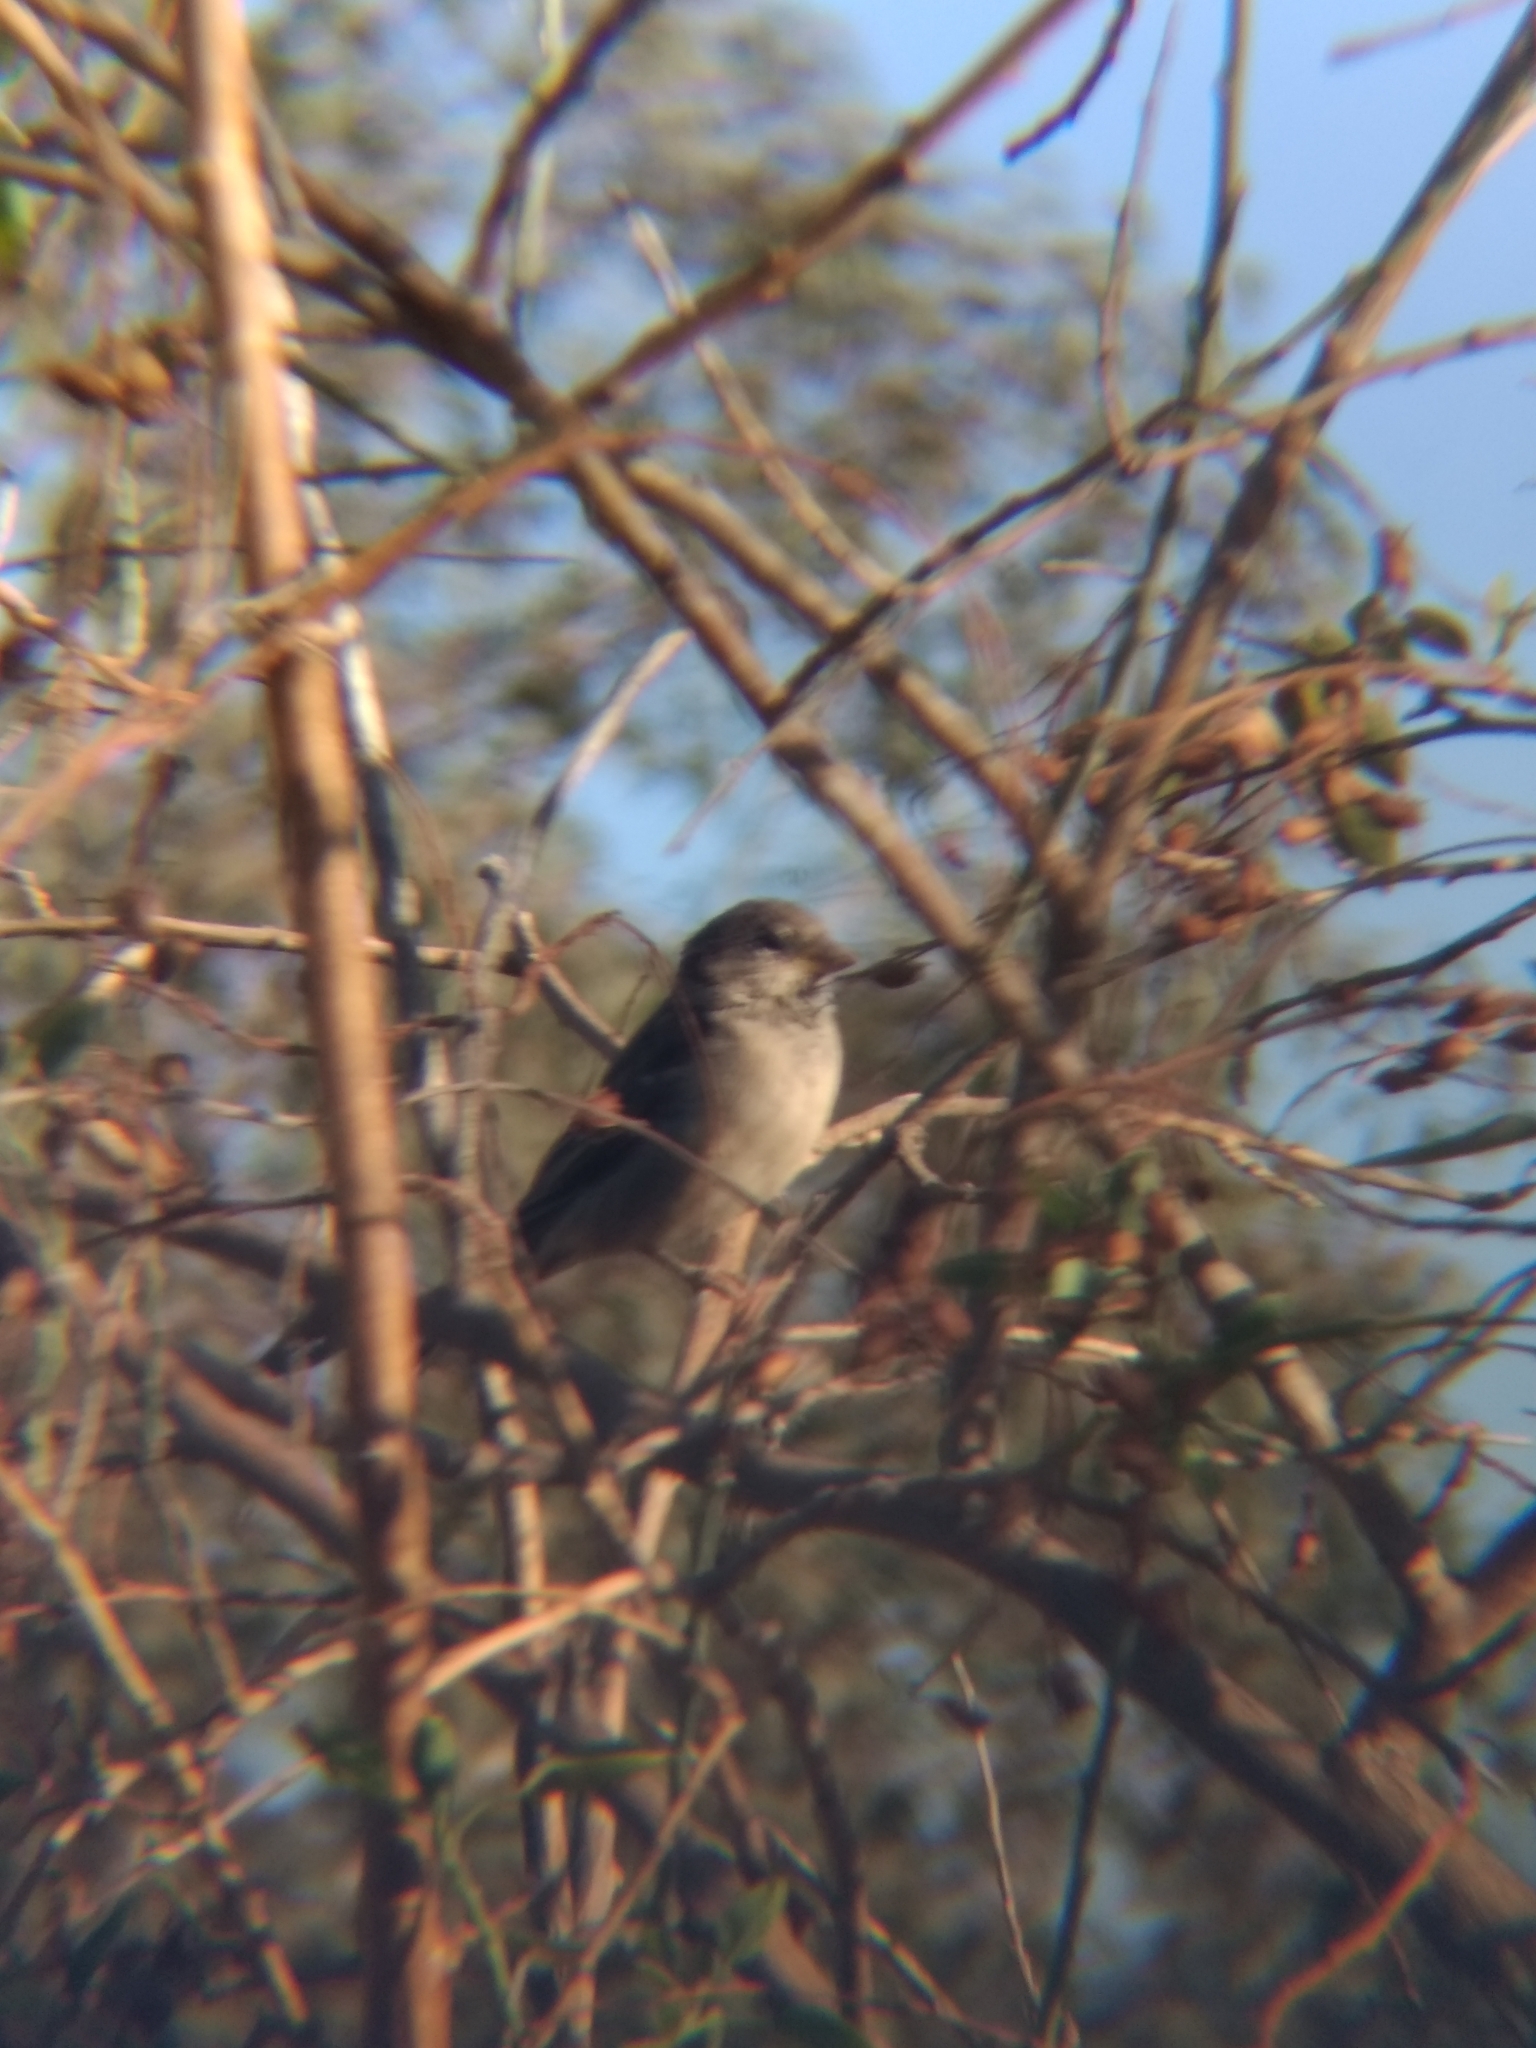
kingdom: Animalia
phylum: Chordata
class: Aves
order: Passeriformes
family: Passeridae
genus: Passer
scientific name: Passer domesticus
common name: House sparrow
